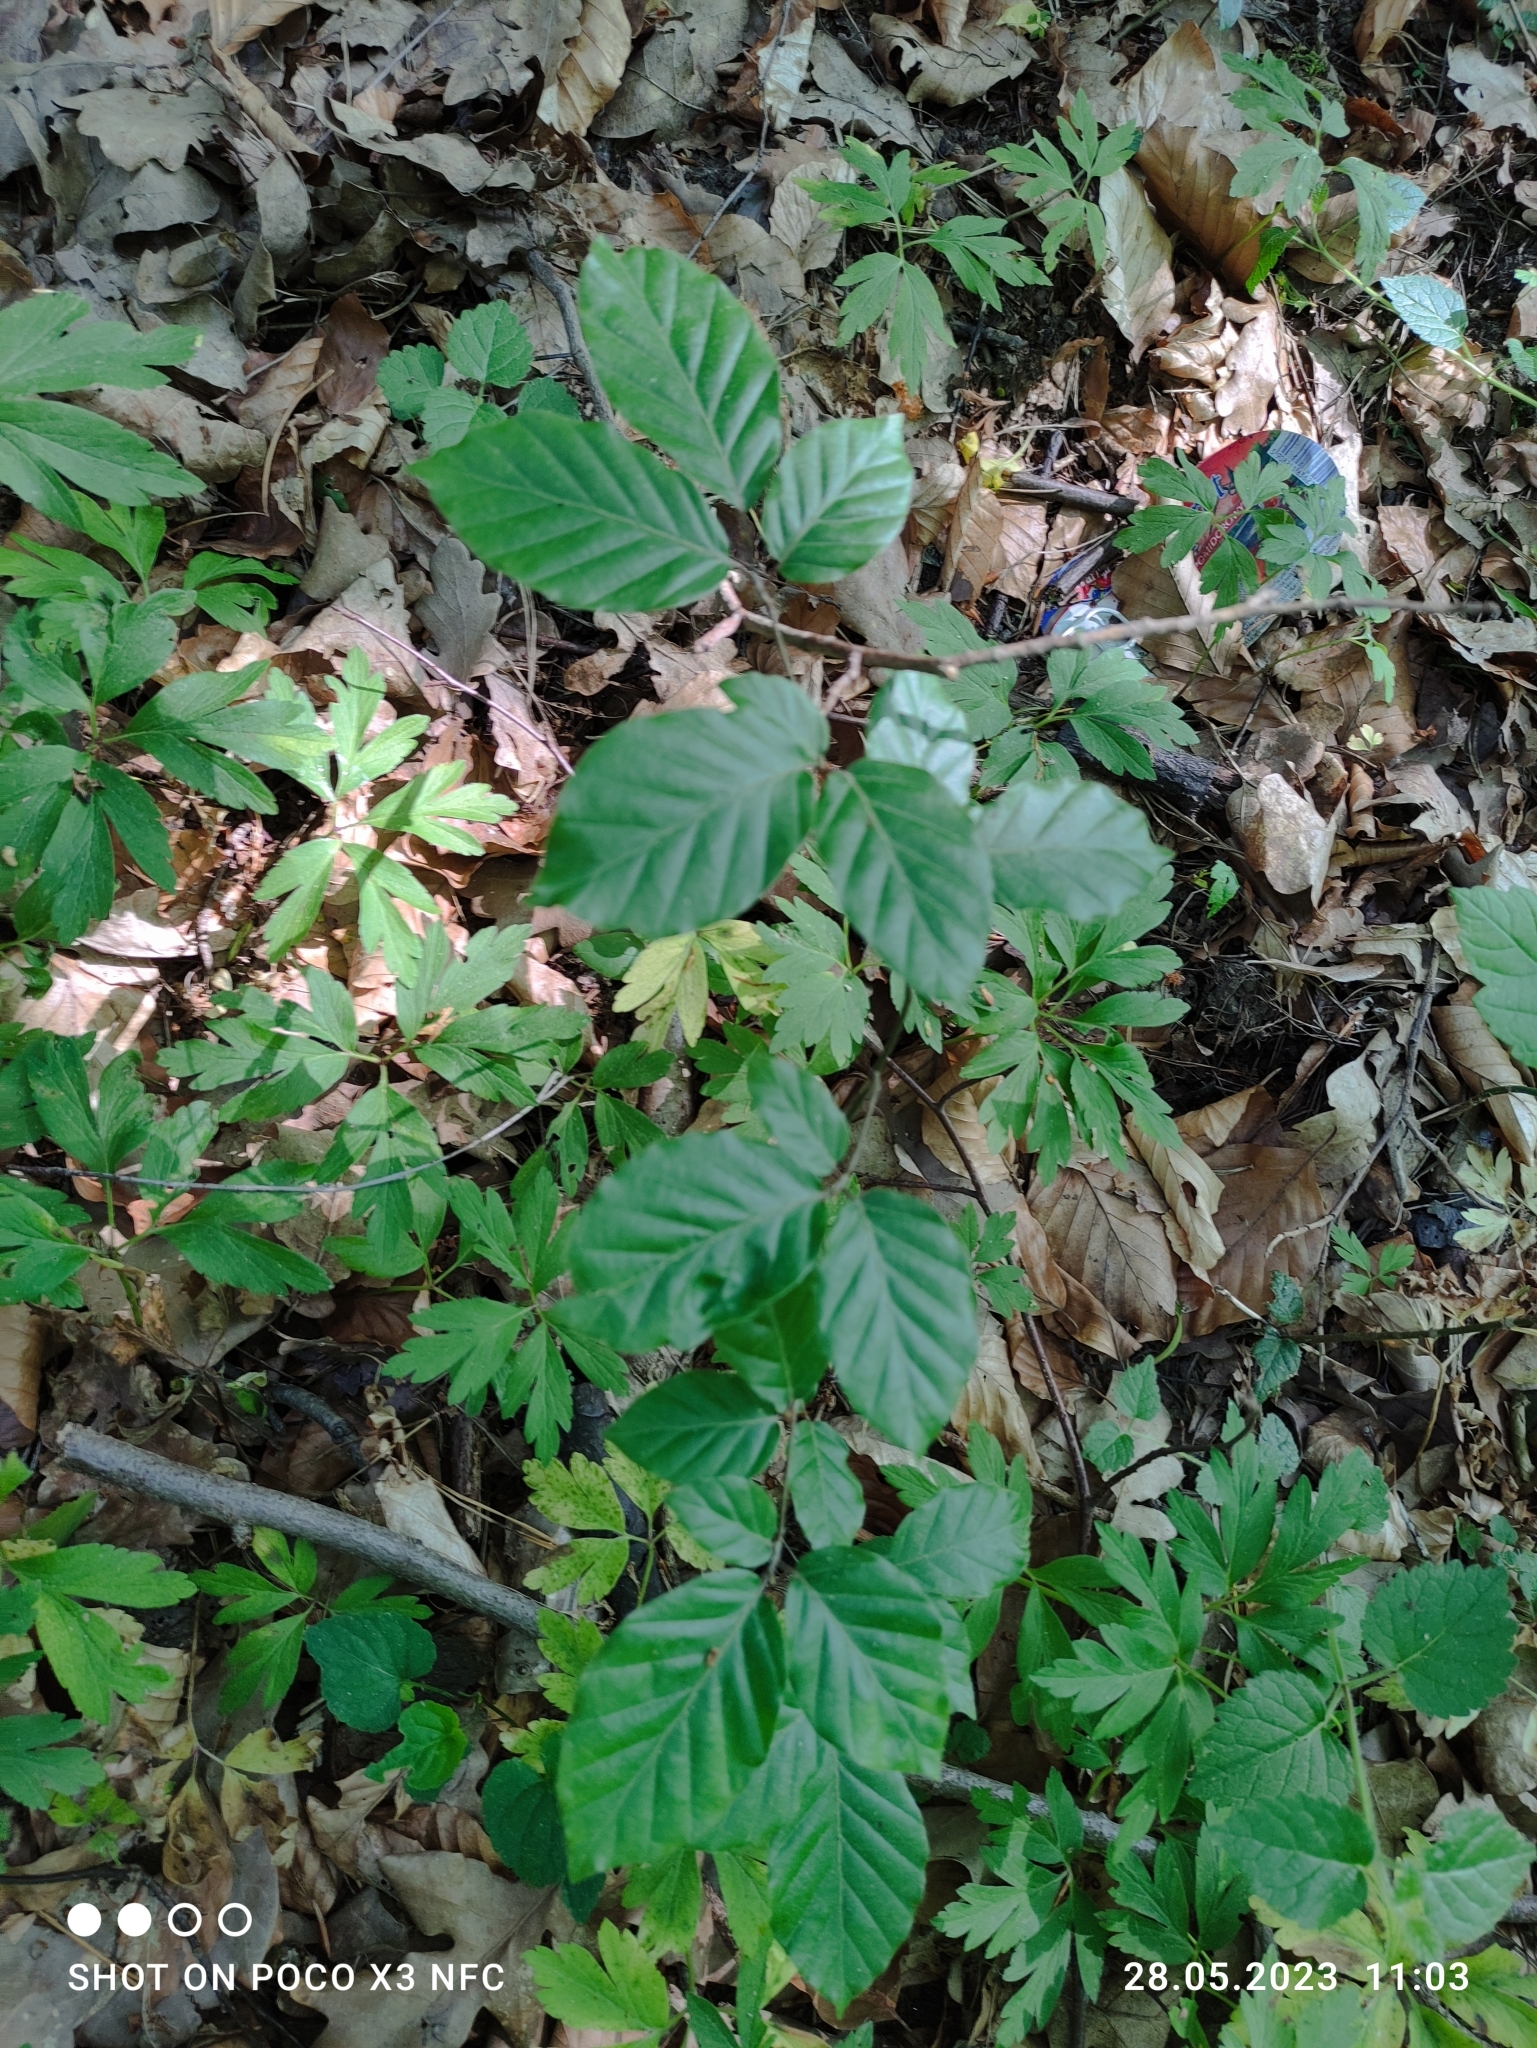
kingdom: Plantae
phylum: Tracheophyta
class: Magnoliopsida
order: Fagales
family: Fagaceae
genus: Fagus
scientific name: Fagus sylvatica
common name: Beech
